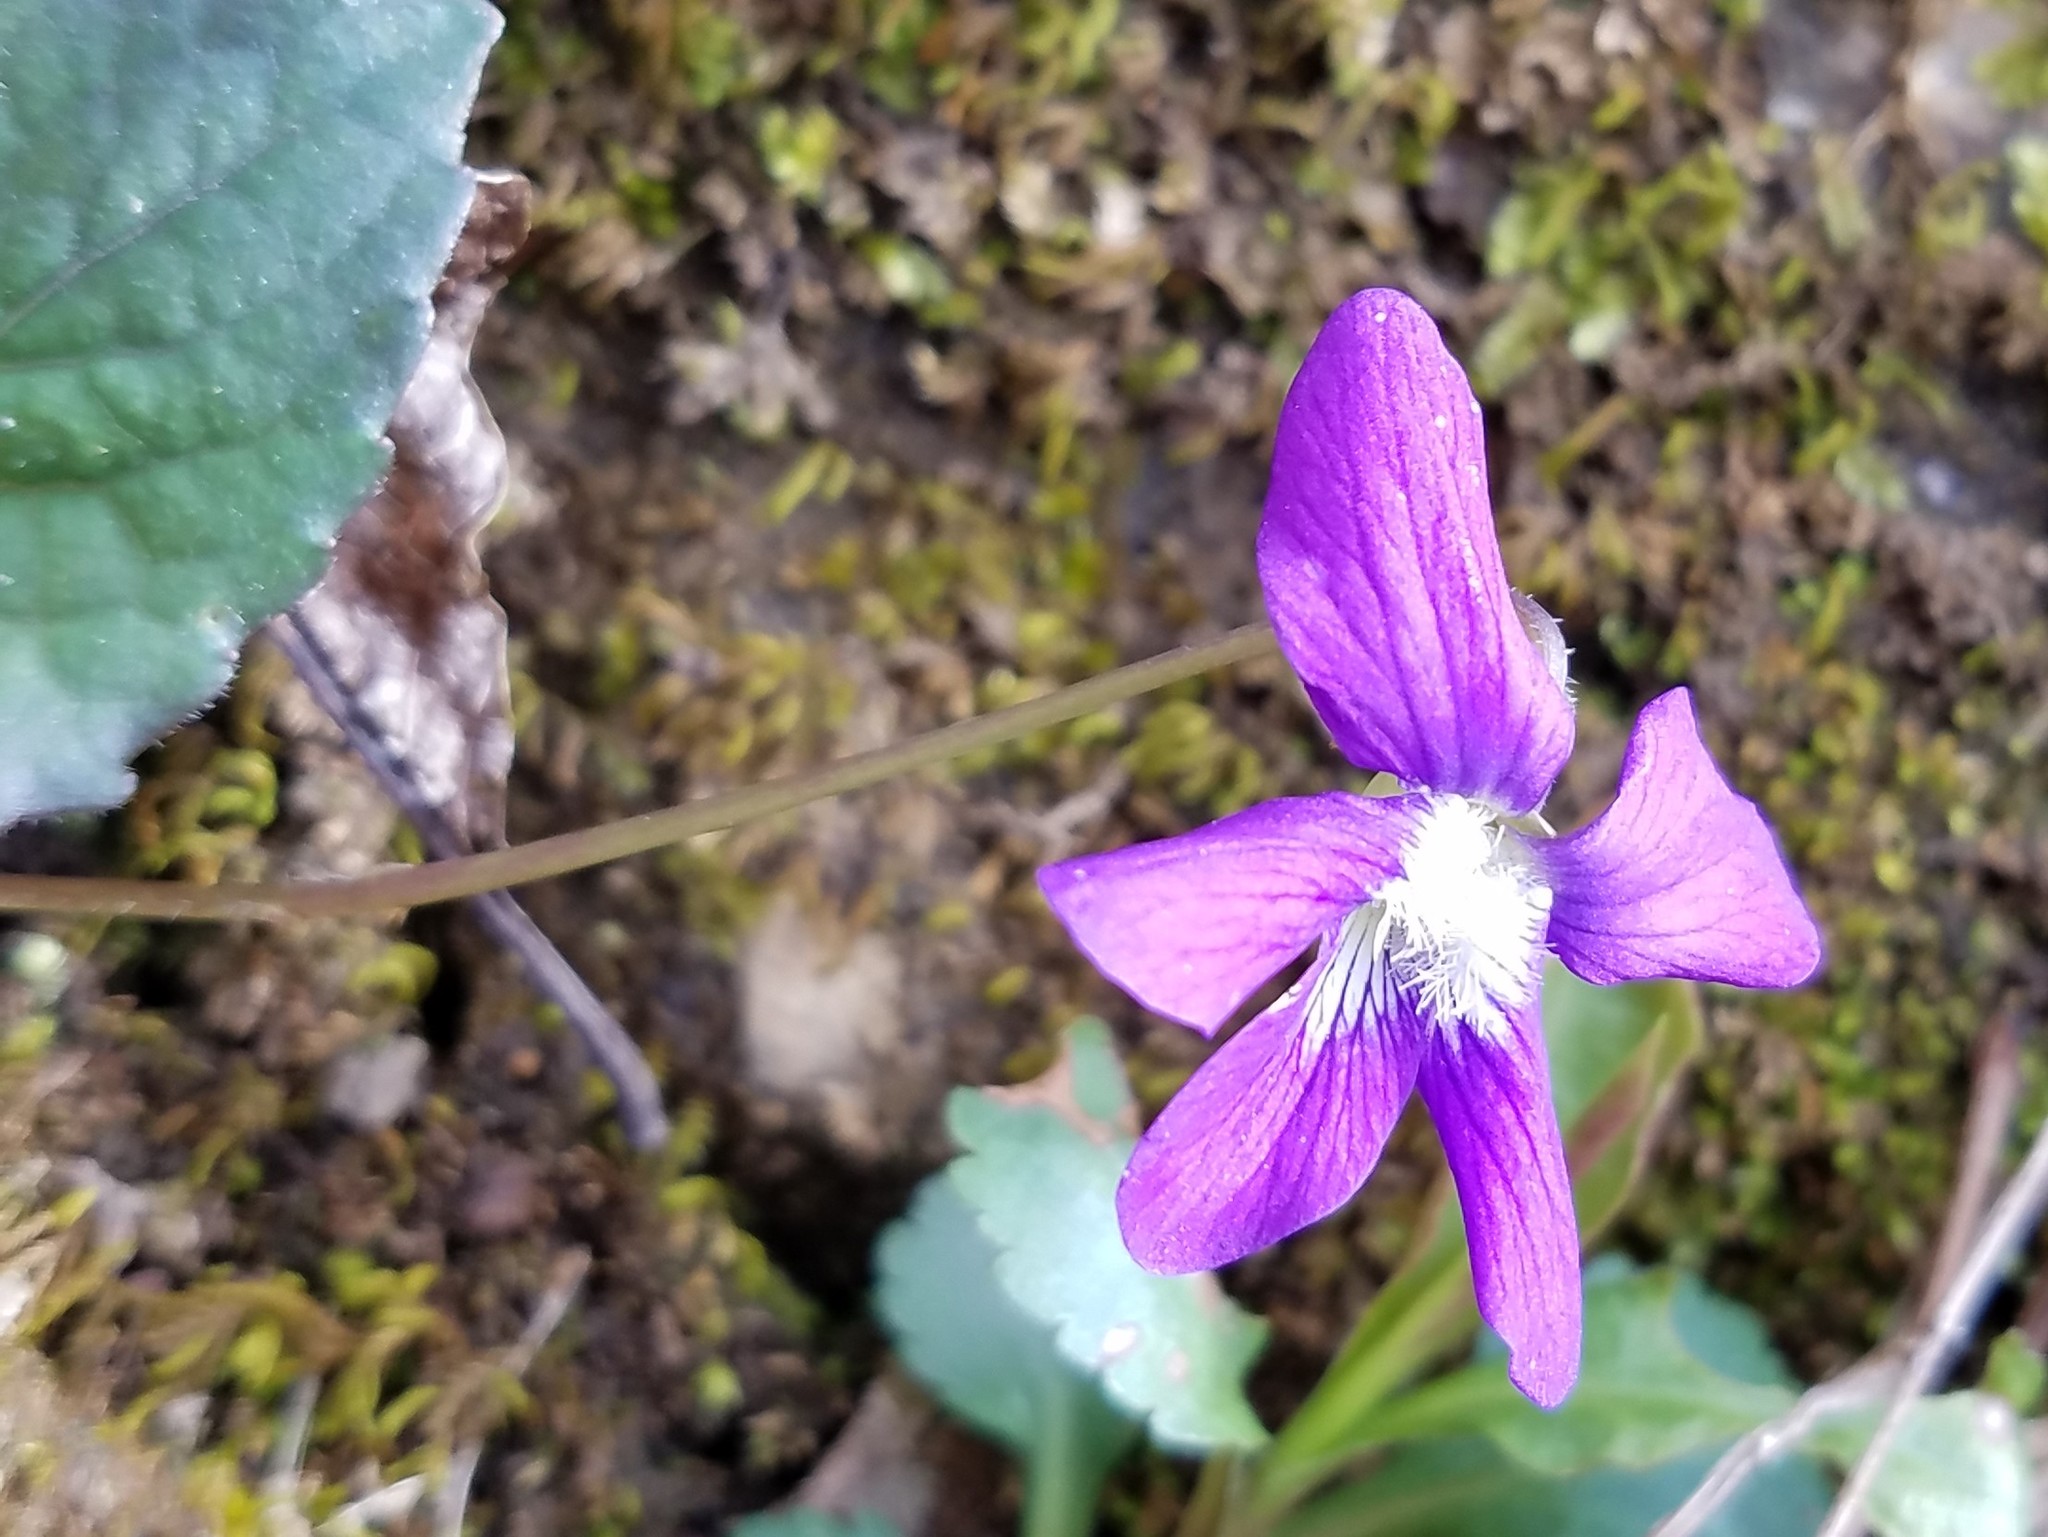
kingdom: Plantae
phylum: Tracheophyta
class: Magnoliopsida
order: Malpighiales
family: Violaceae
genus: Viola
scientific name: Viola sororia
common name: Dooryard violet
